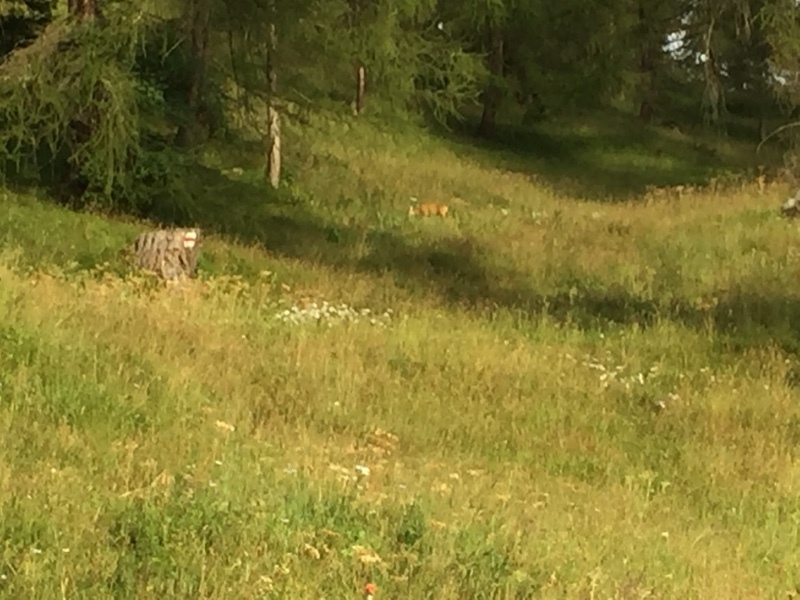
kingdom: Animalia
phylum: Chordata
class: Mammalia
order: Artiodactyla
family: Cervidae
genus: Capreolus
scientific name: Capreolus capreolus
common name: Western roe deer
